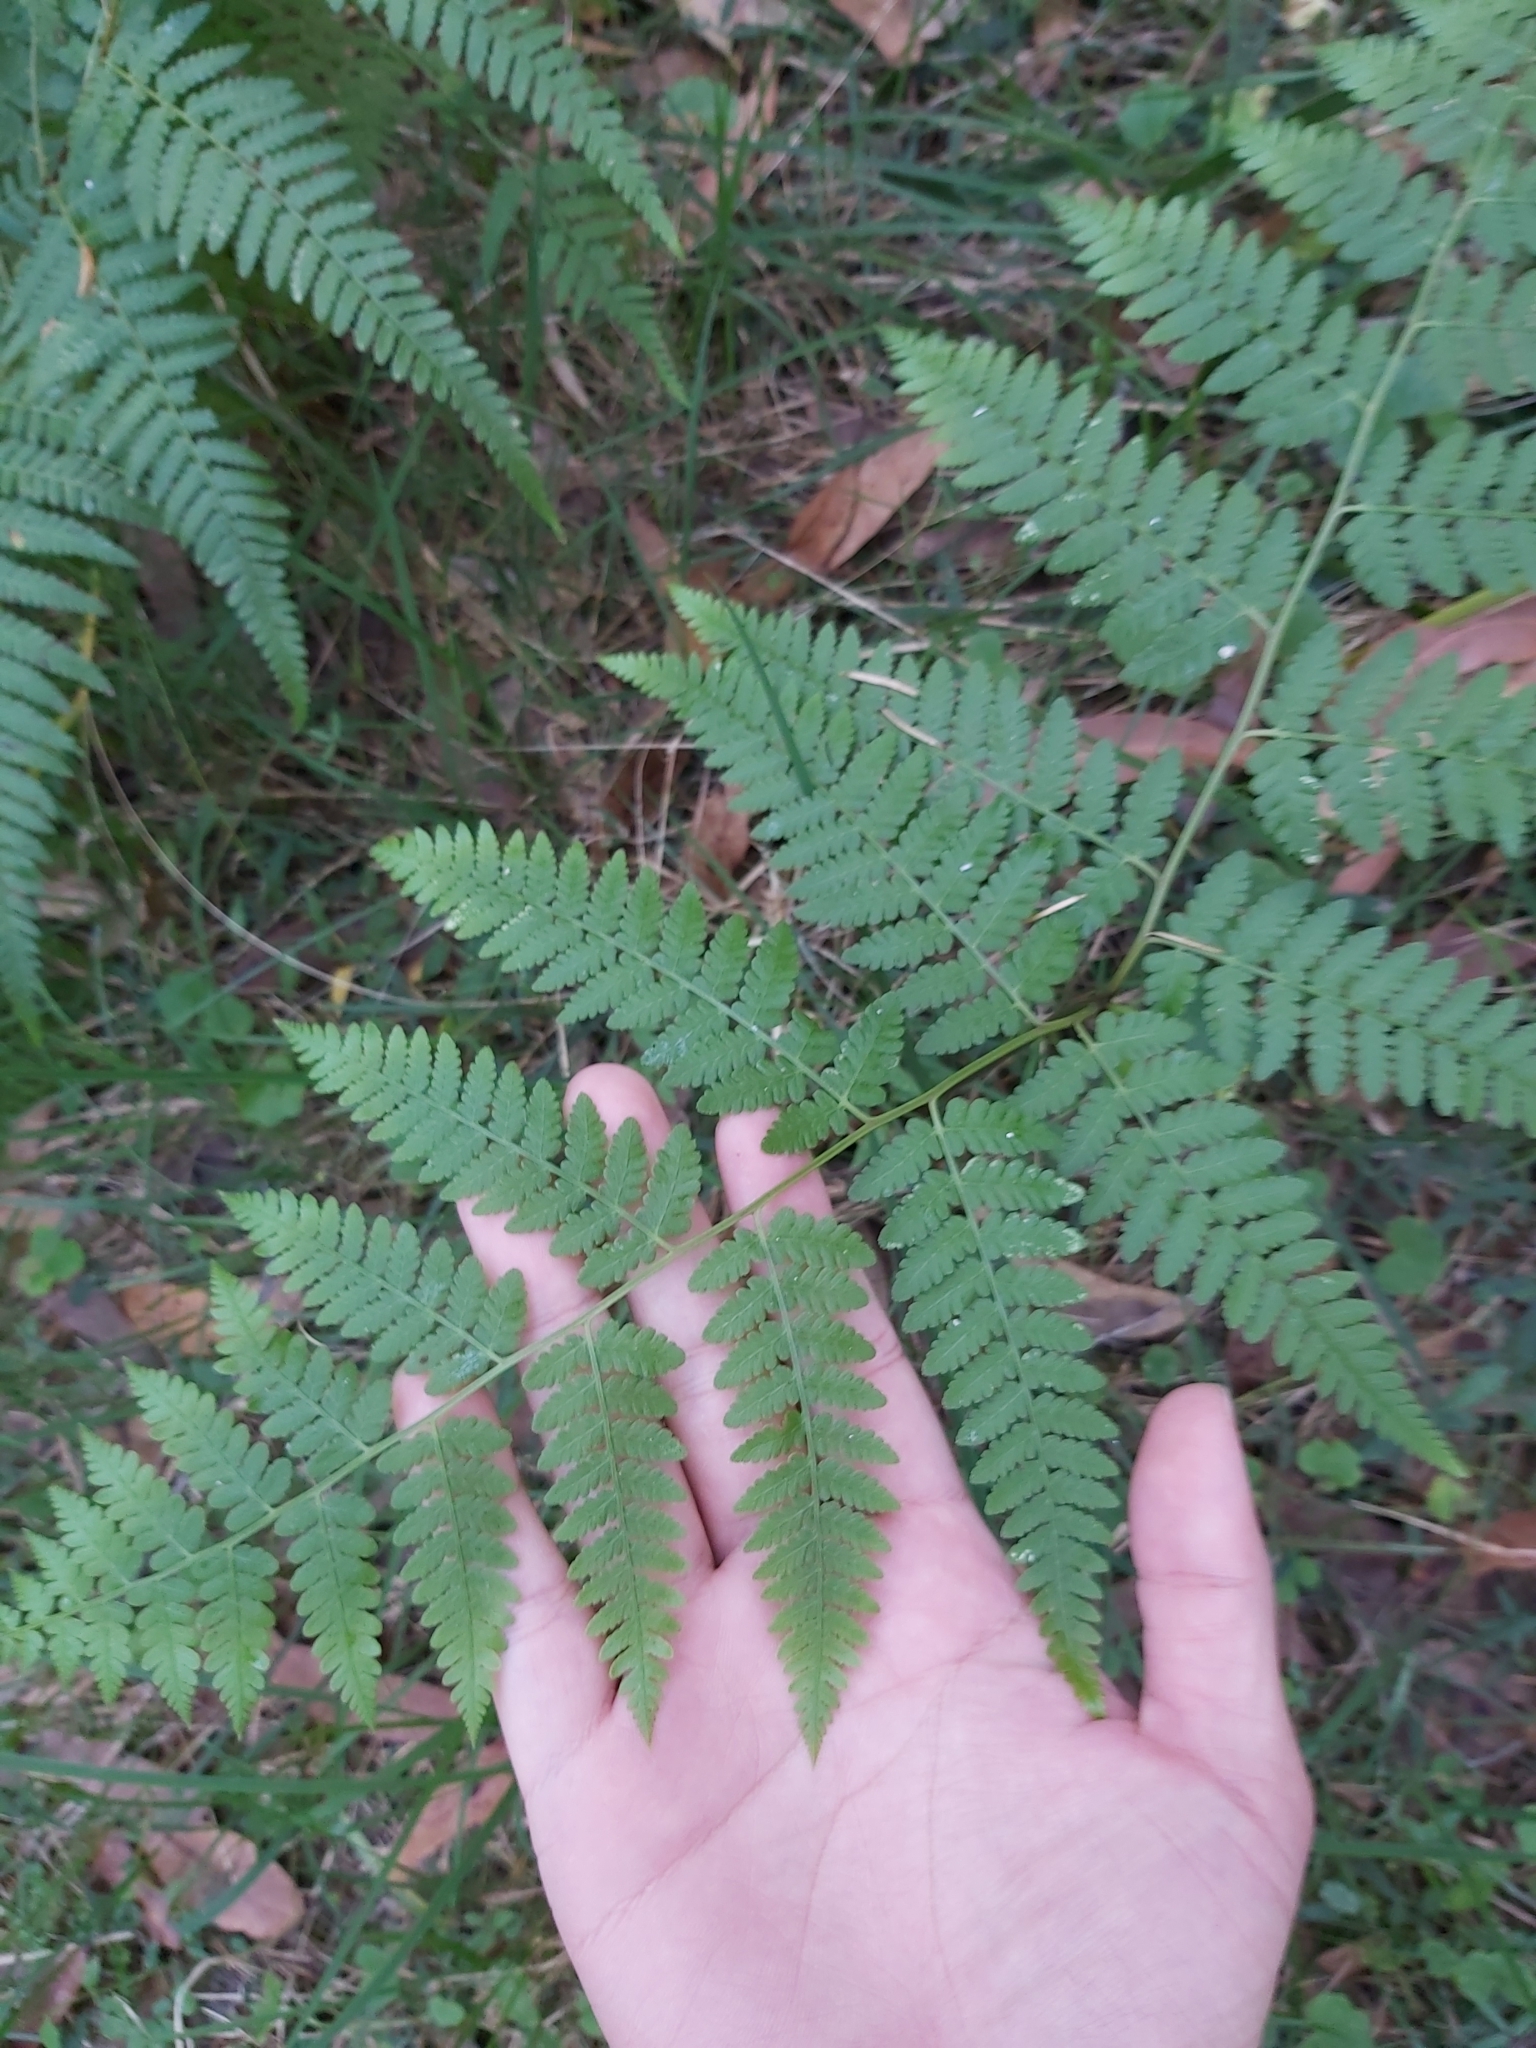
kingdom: Plantae
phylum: Tracheophyta
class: Polypodiopsida
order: Cyatheales
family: Dicksoniaceae
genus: Calochlaena
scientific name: Calochlaena dubia
